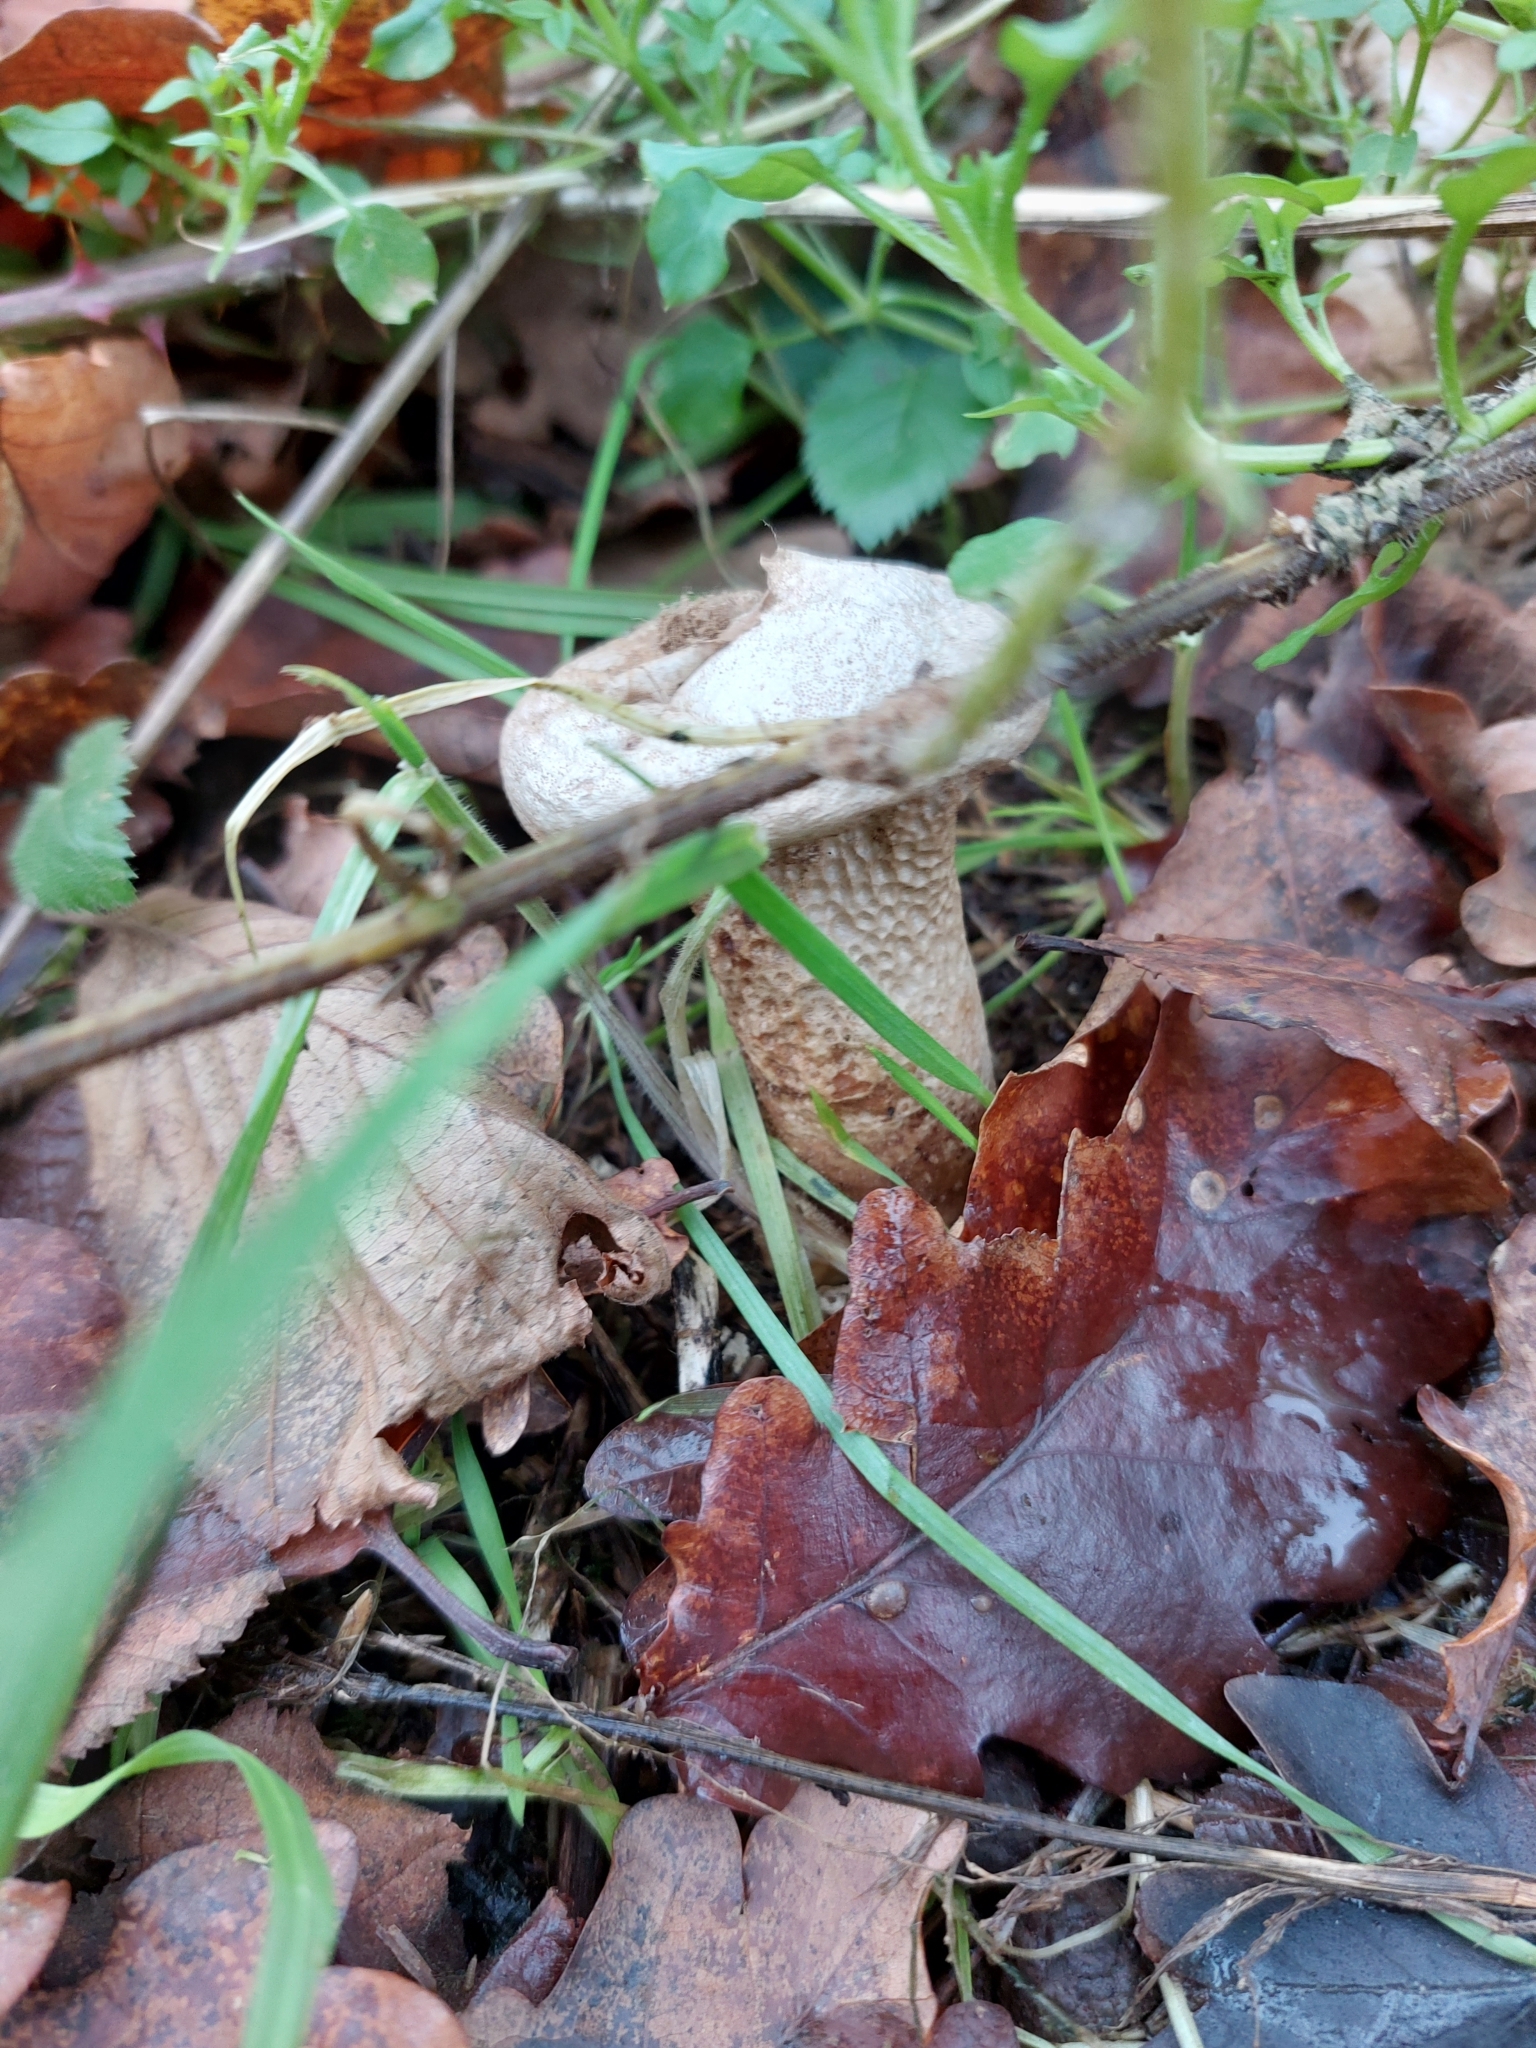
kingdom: Fungi
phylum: Basidiomycota
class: Agaricomycetes
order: Agaricales
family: Lycoperdaceae
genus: Lycoperdon
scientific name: Lycoperdon excipuliforme
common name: Pestle puffball
